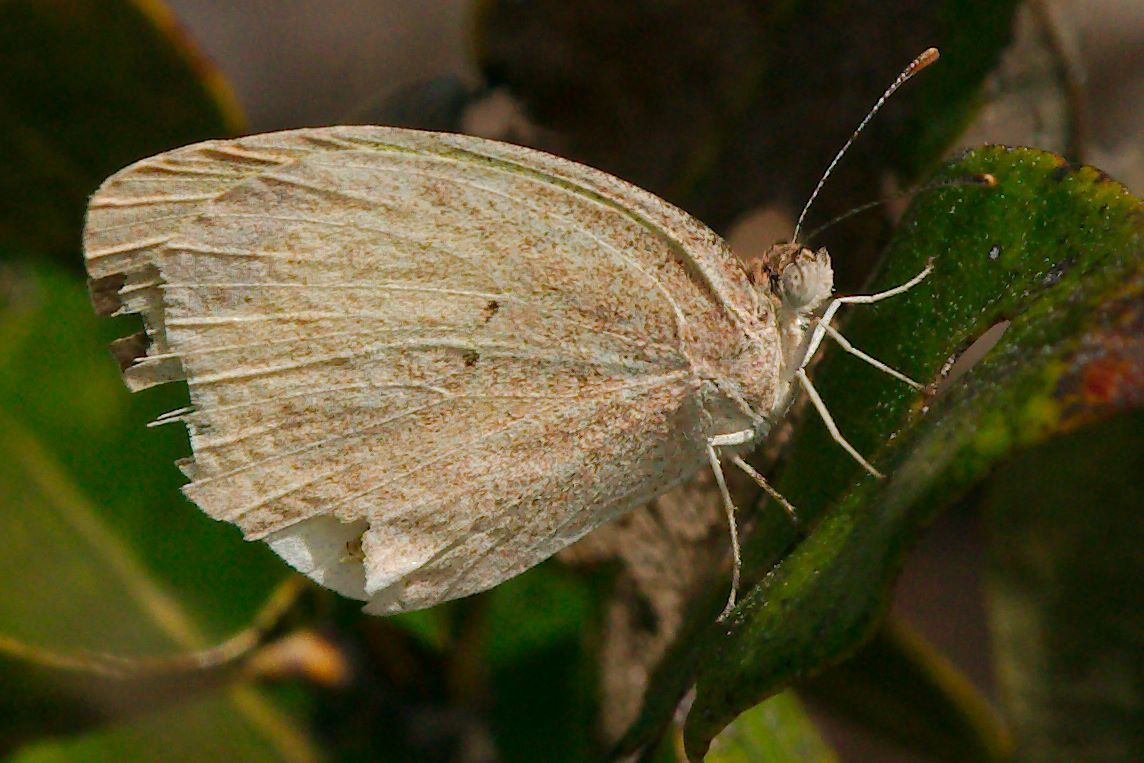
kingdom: Animalia
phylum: Arthropoda
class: Insecta
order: Lepidoptera
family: Pieridae
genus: Eurema
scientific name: Eurema daira
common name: Barred sulphur
